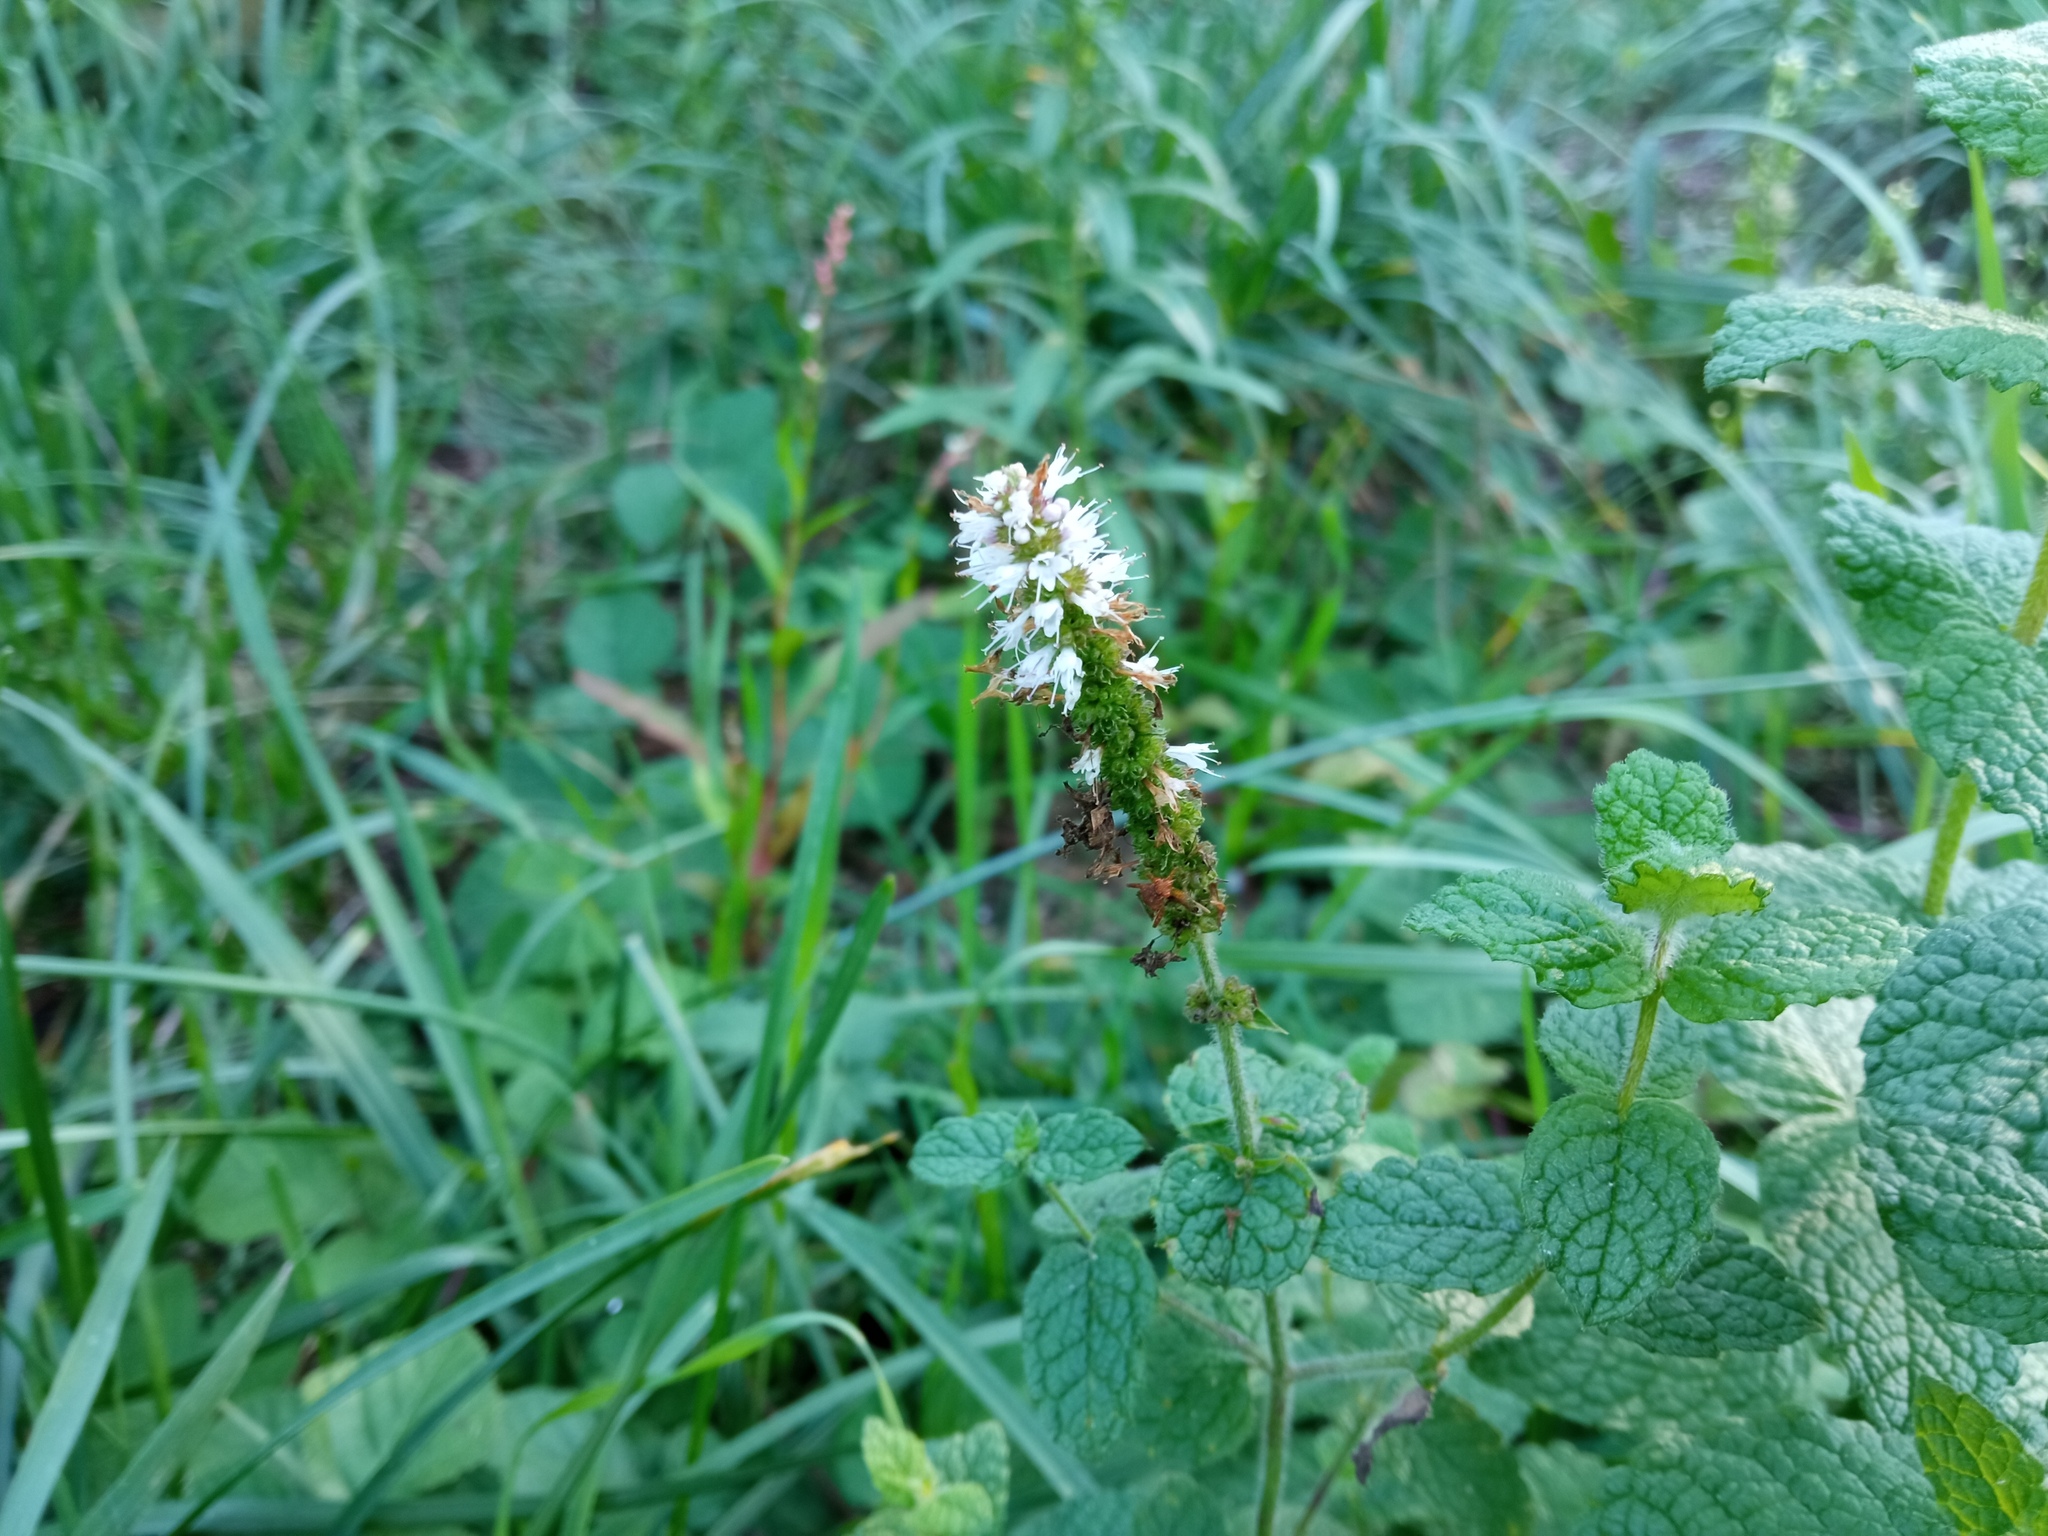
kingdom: Plantae
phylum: Tracheophyta
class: Magnoliopsida
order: Lamiales
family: Lamiaceae
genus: Mentha
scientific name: Mentha suaveolens
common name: Apple mint
